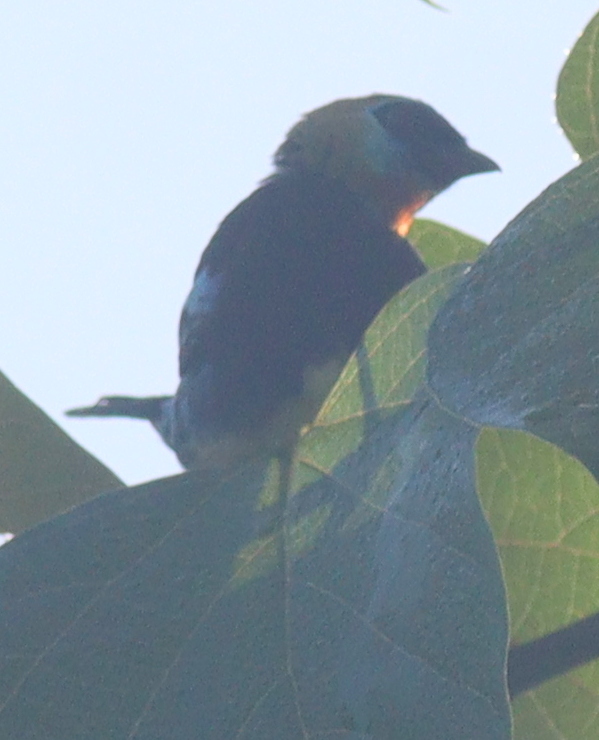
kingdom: Animalia
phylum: Chordata
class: Aves
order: Passeriformes
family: Thraupidae
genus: Stilpnia
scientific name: Stilpnia larvata
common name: Golden-hooded tanager
